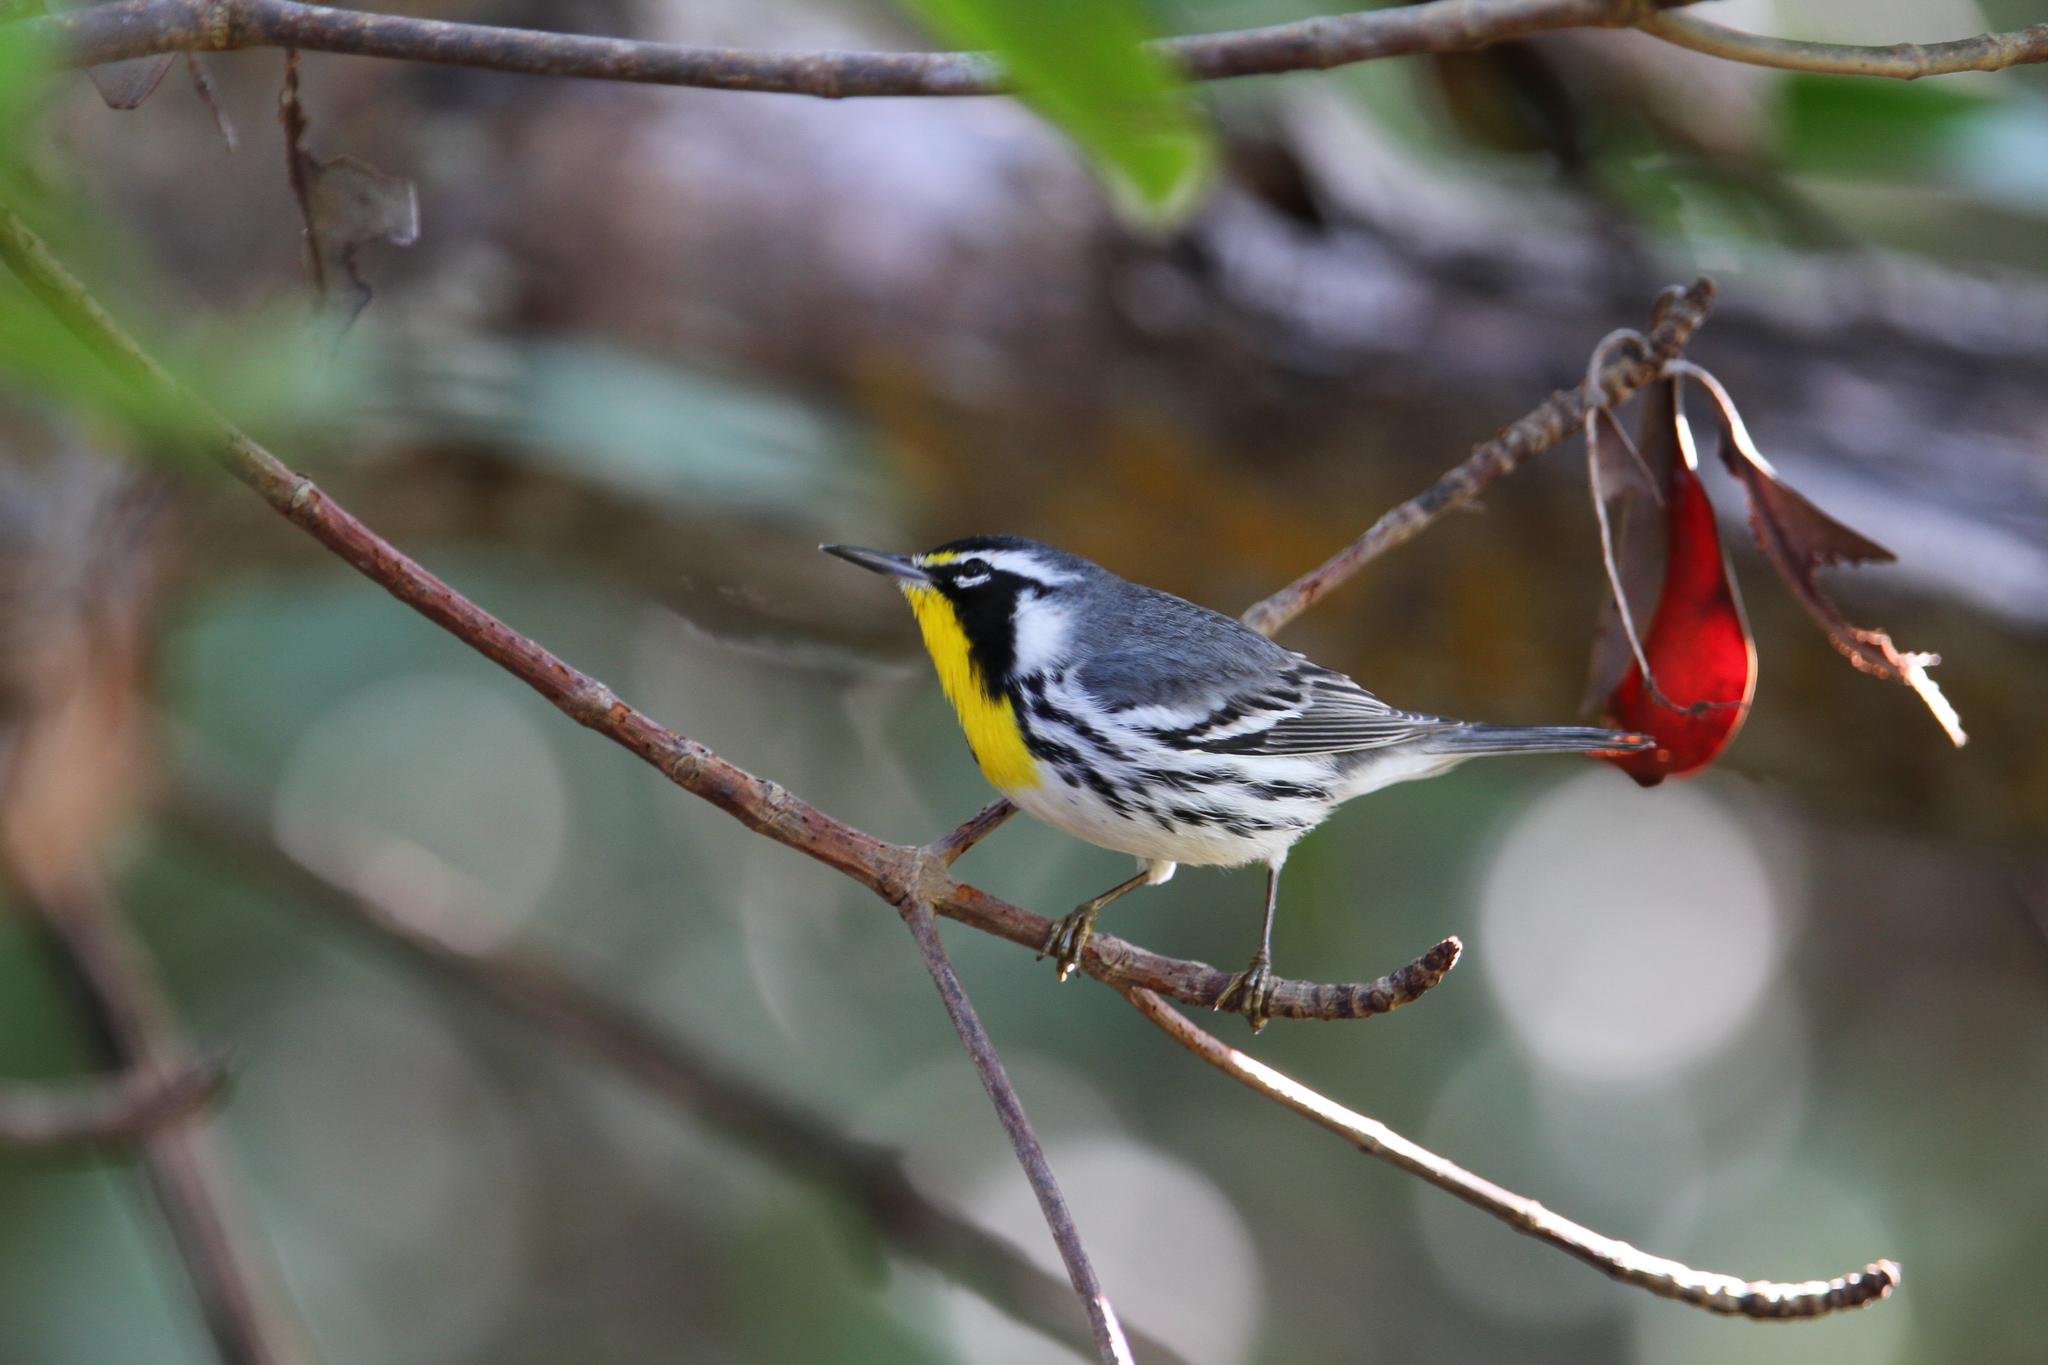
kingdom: Animalia
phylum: Chordata
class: Aves
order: Passeriformes
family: Parulidae
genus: Setophaga
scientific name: Setophaga dominica
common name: Yellow-throated warbler
